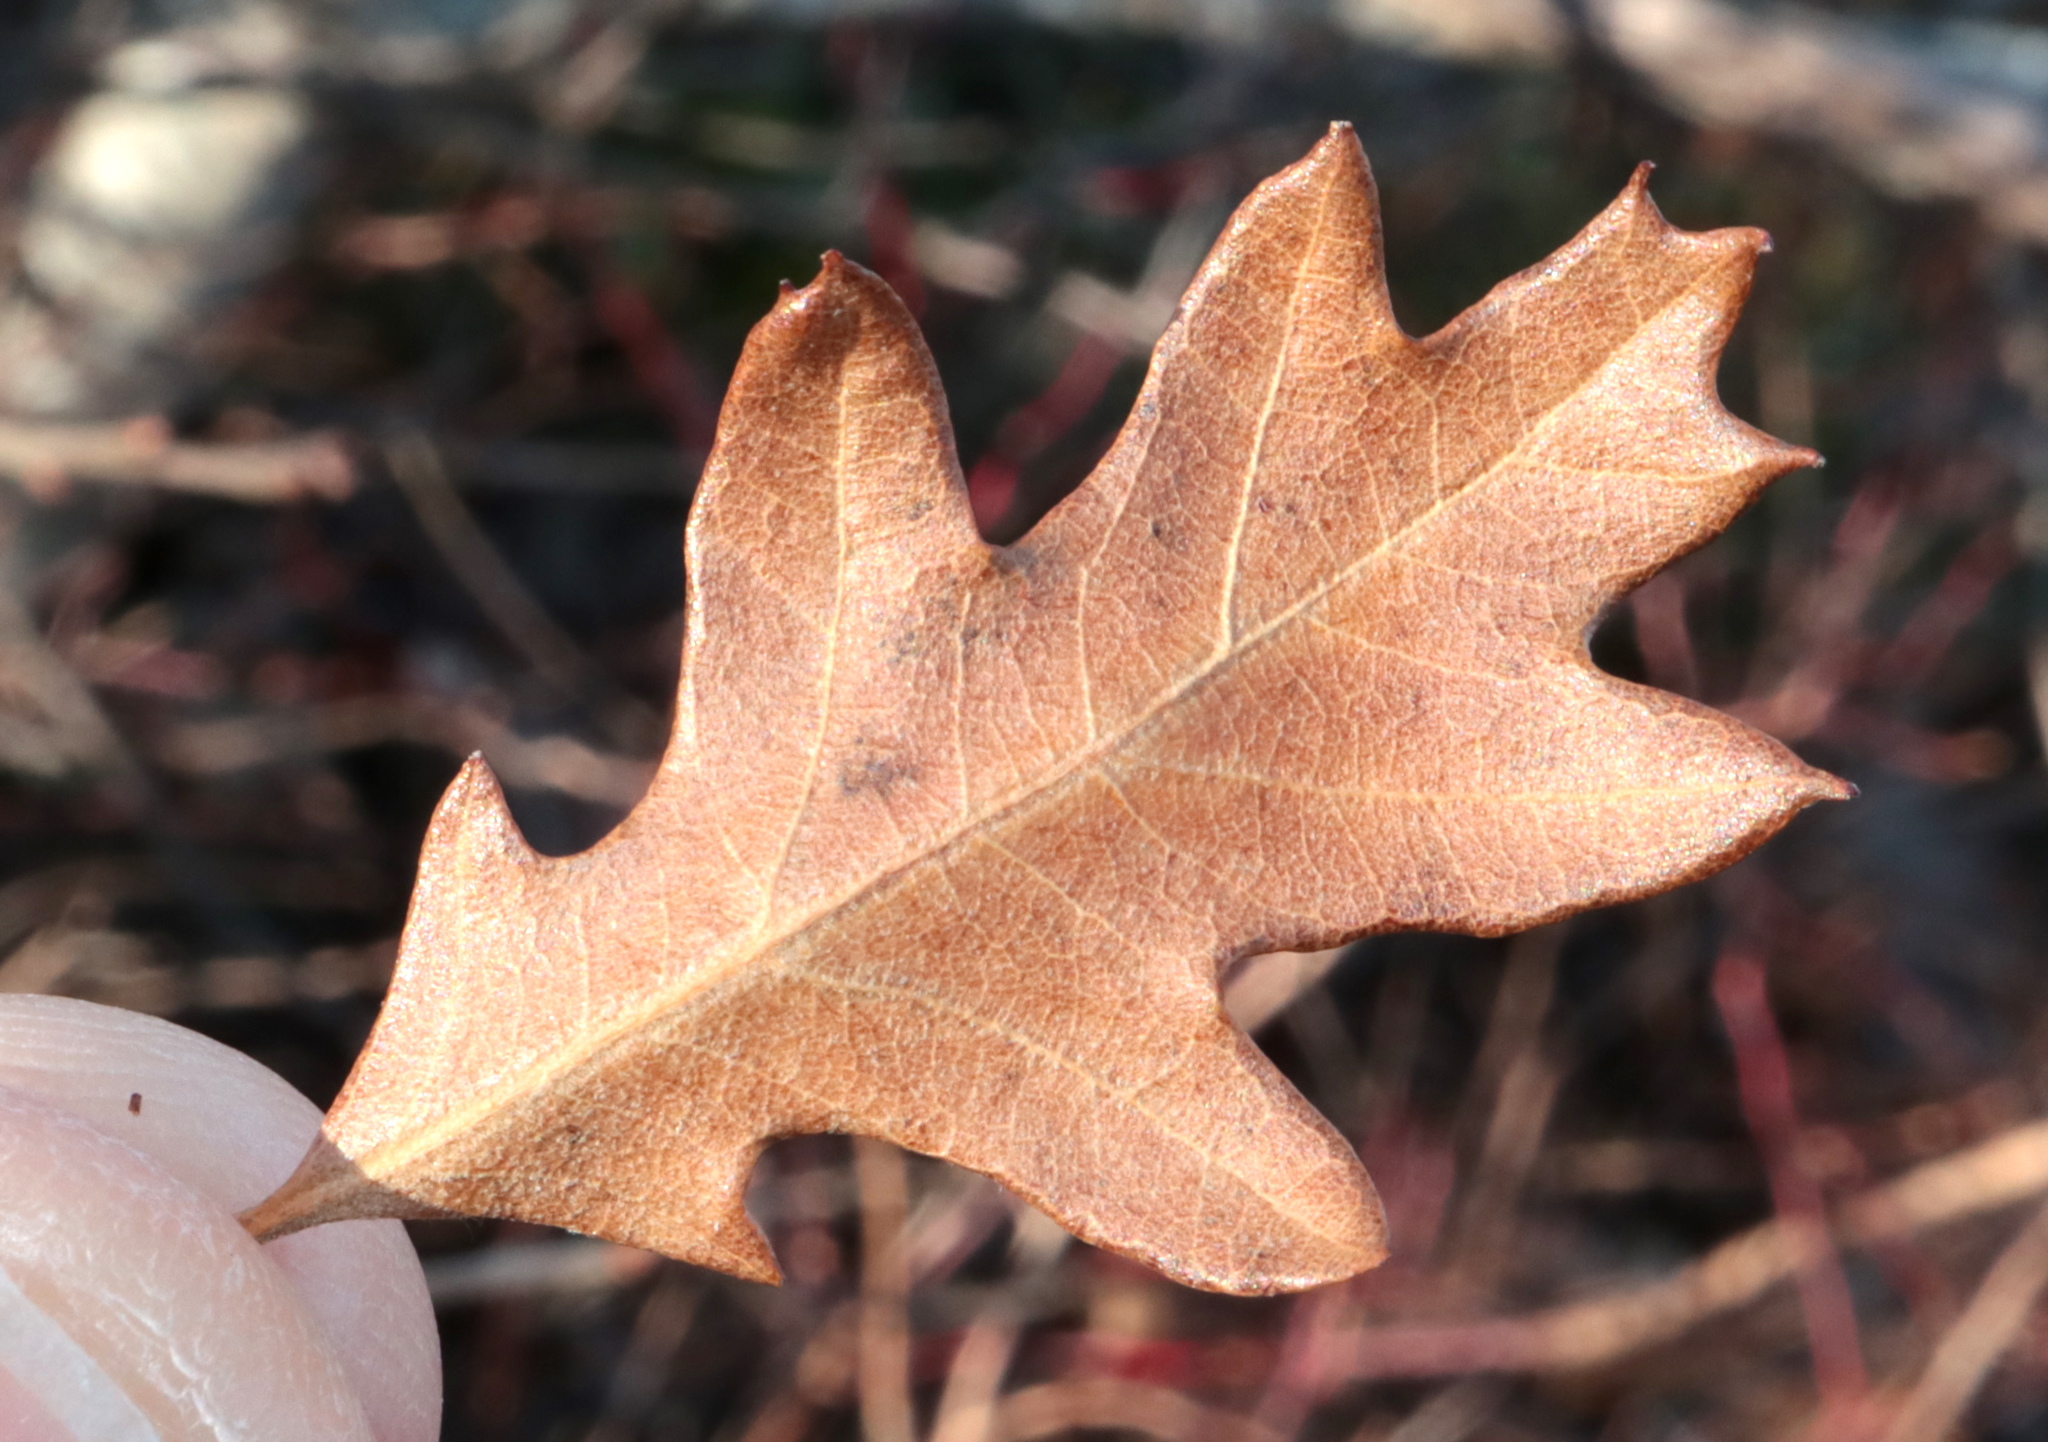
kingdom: Plantae
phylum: Tracheophyta
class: Magnoliopsida
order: Fagales
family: Fagaceae
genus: Quercus
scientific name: Quercus ilicifolia
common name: Bear oak
